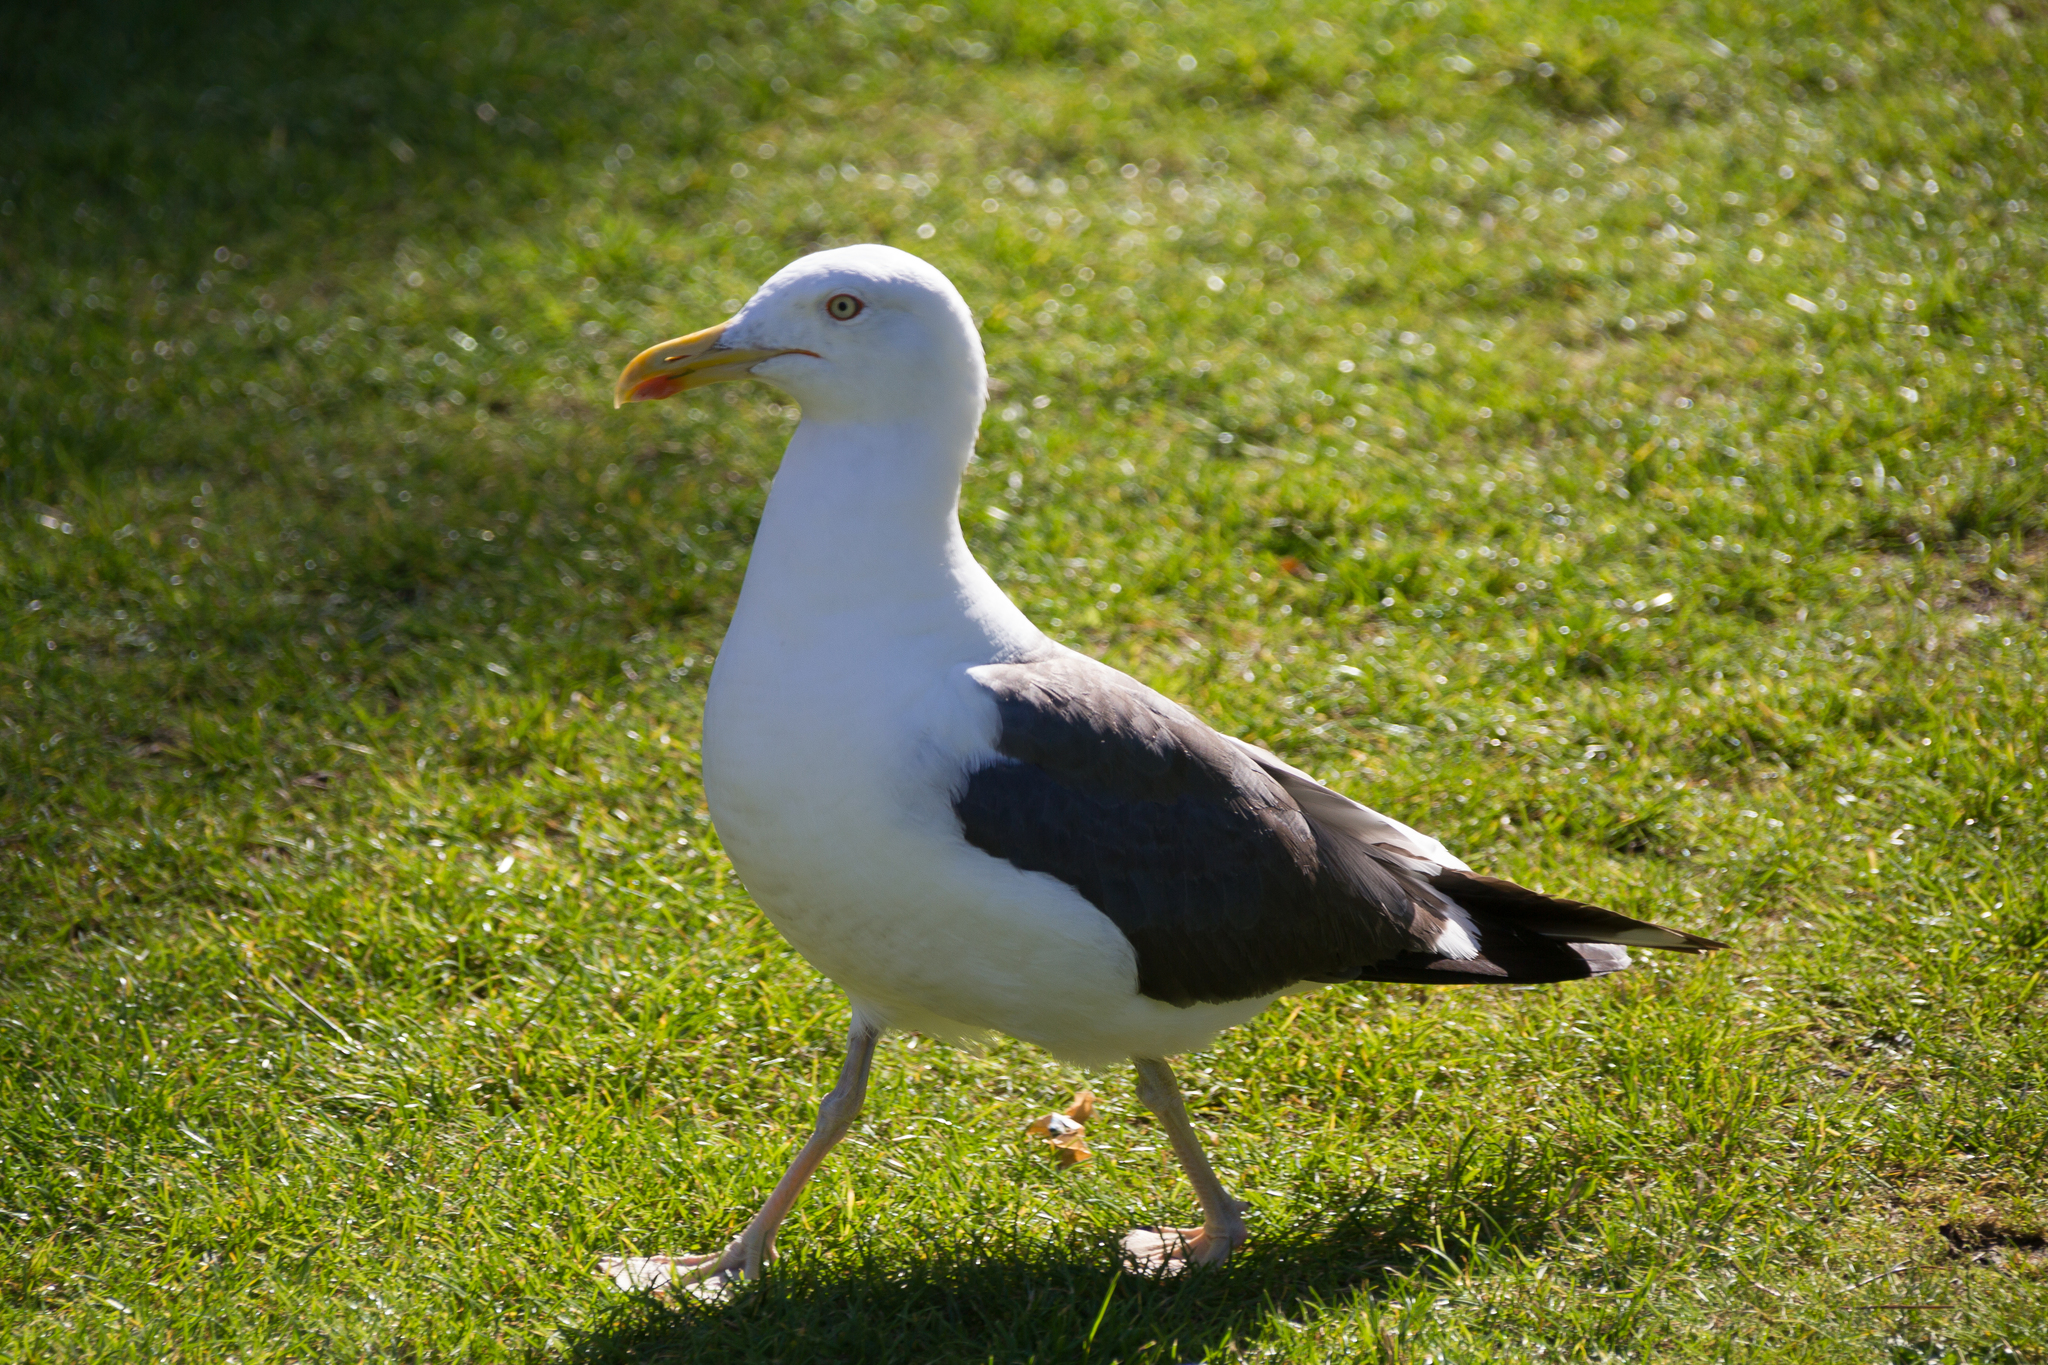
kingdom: Animalia
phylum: Chordata
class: Aves
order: Charadriiformes
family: Laridae
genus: Larus
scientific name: Larus fuscus
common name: Lesser black-backed gull
